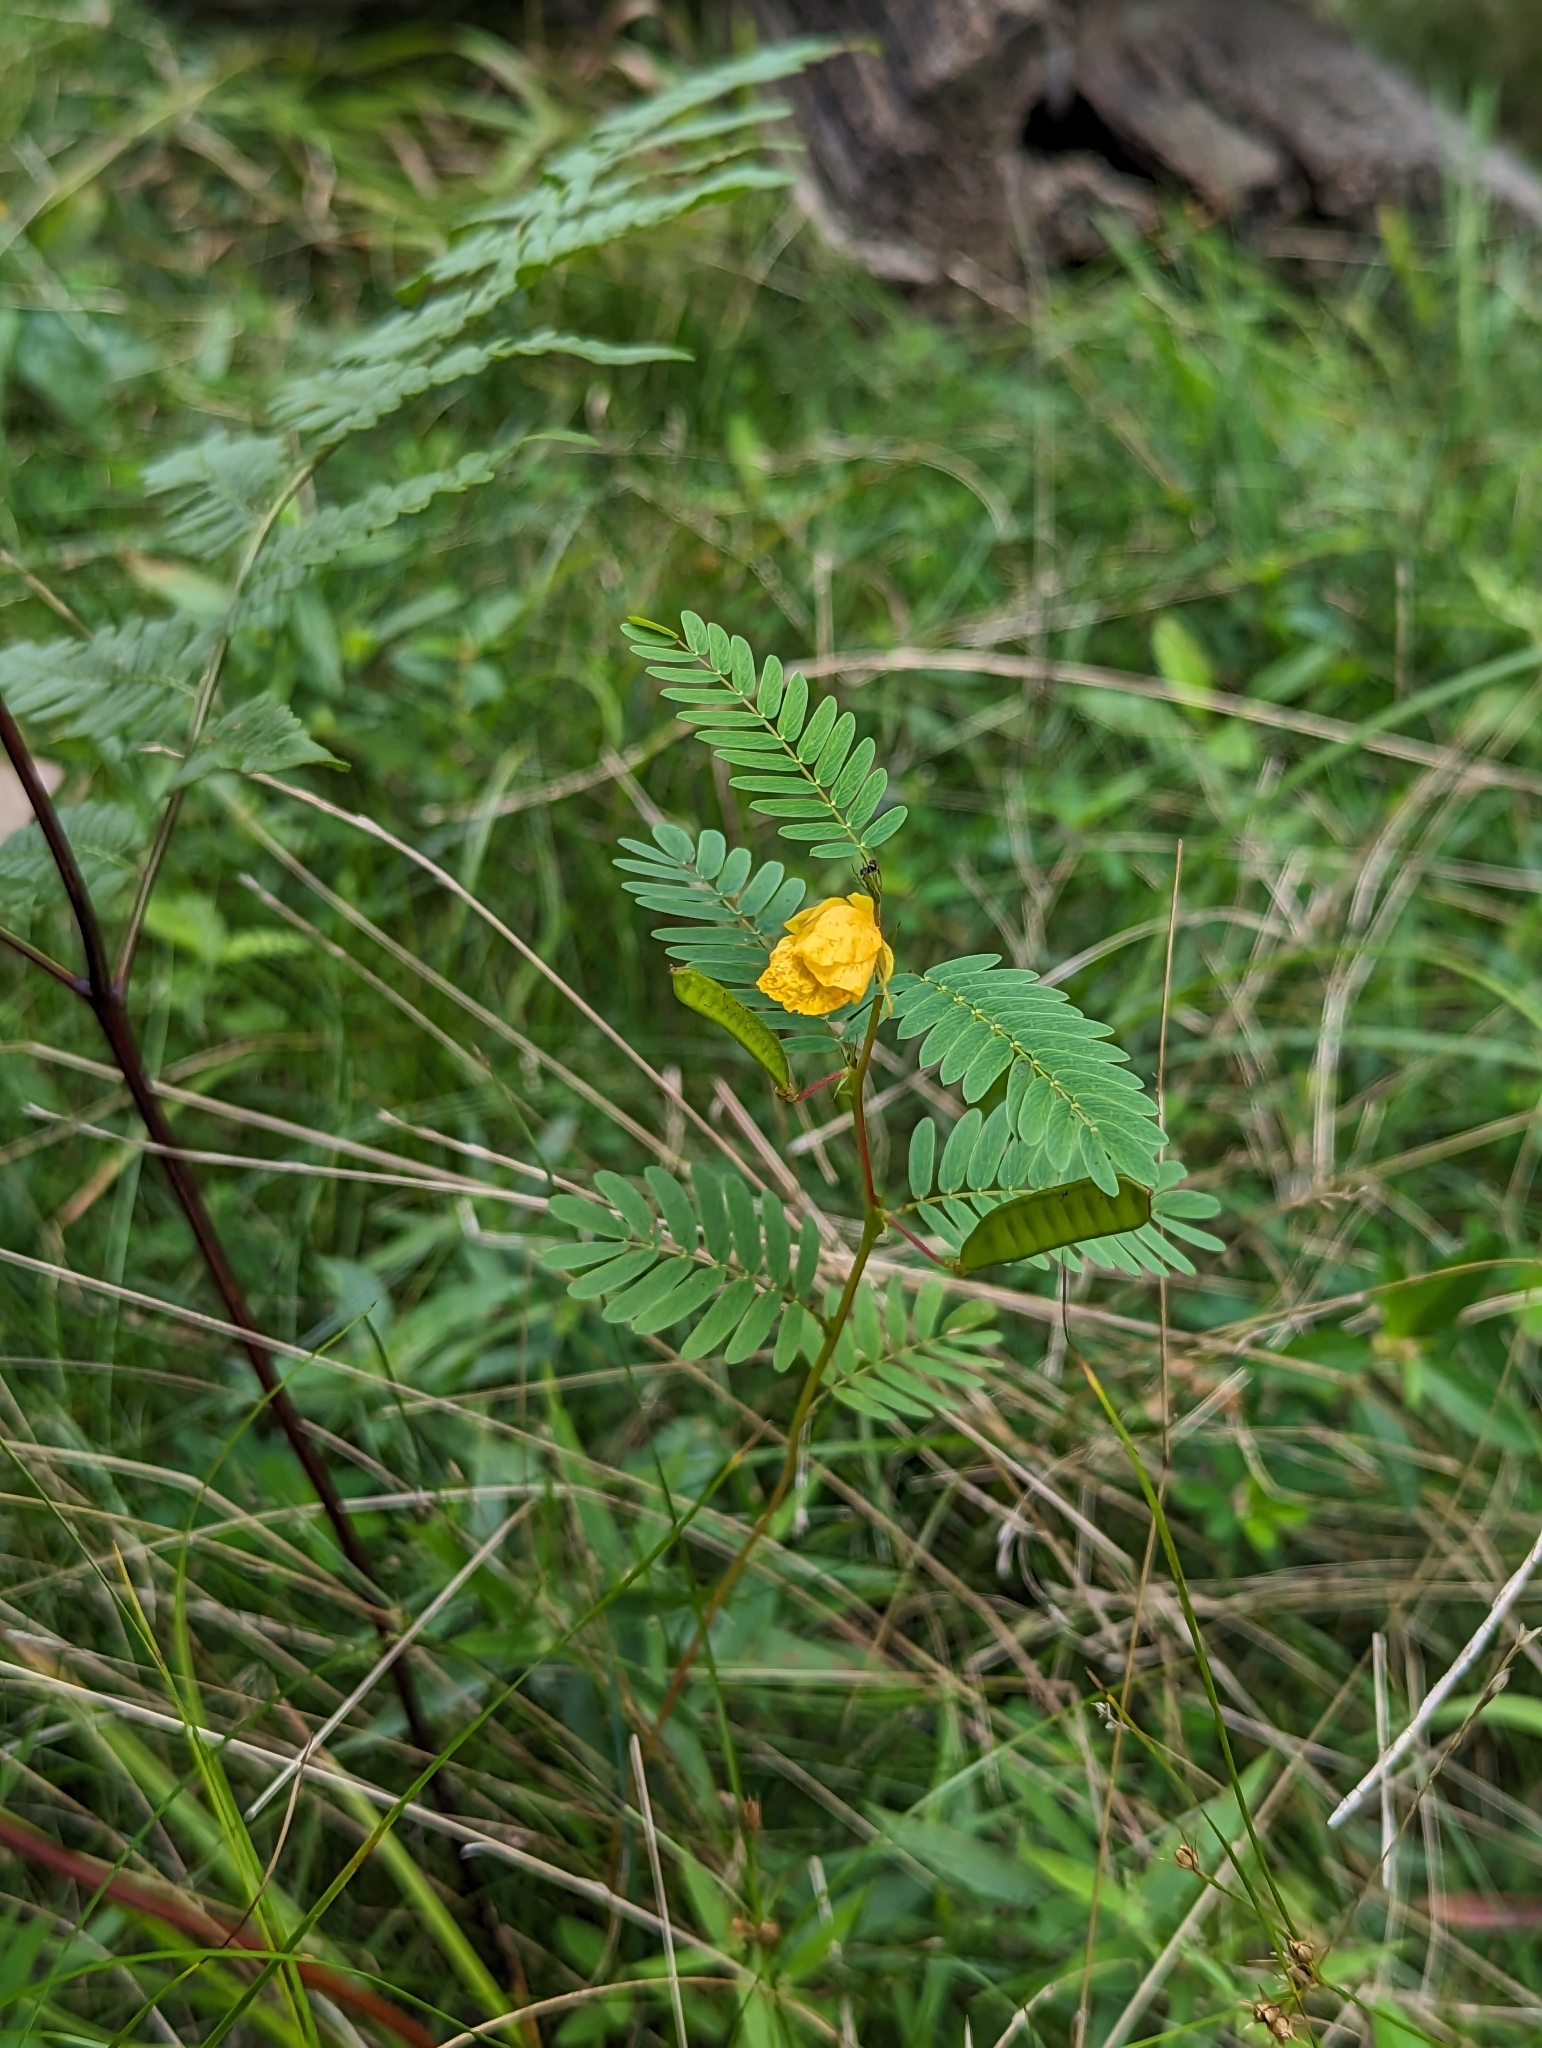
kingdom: Plantae
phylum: Tracheophyta
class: Magnoliopsida
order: Fabales
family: Fabaceae
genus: Chamaecrista
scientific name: Chamaecrista fasciculata
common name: Golden cassia
